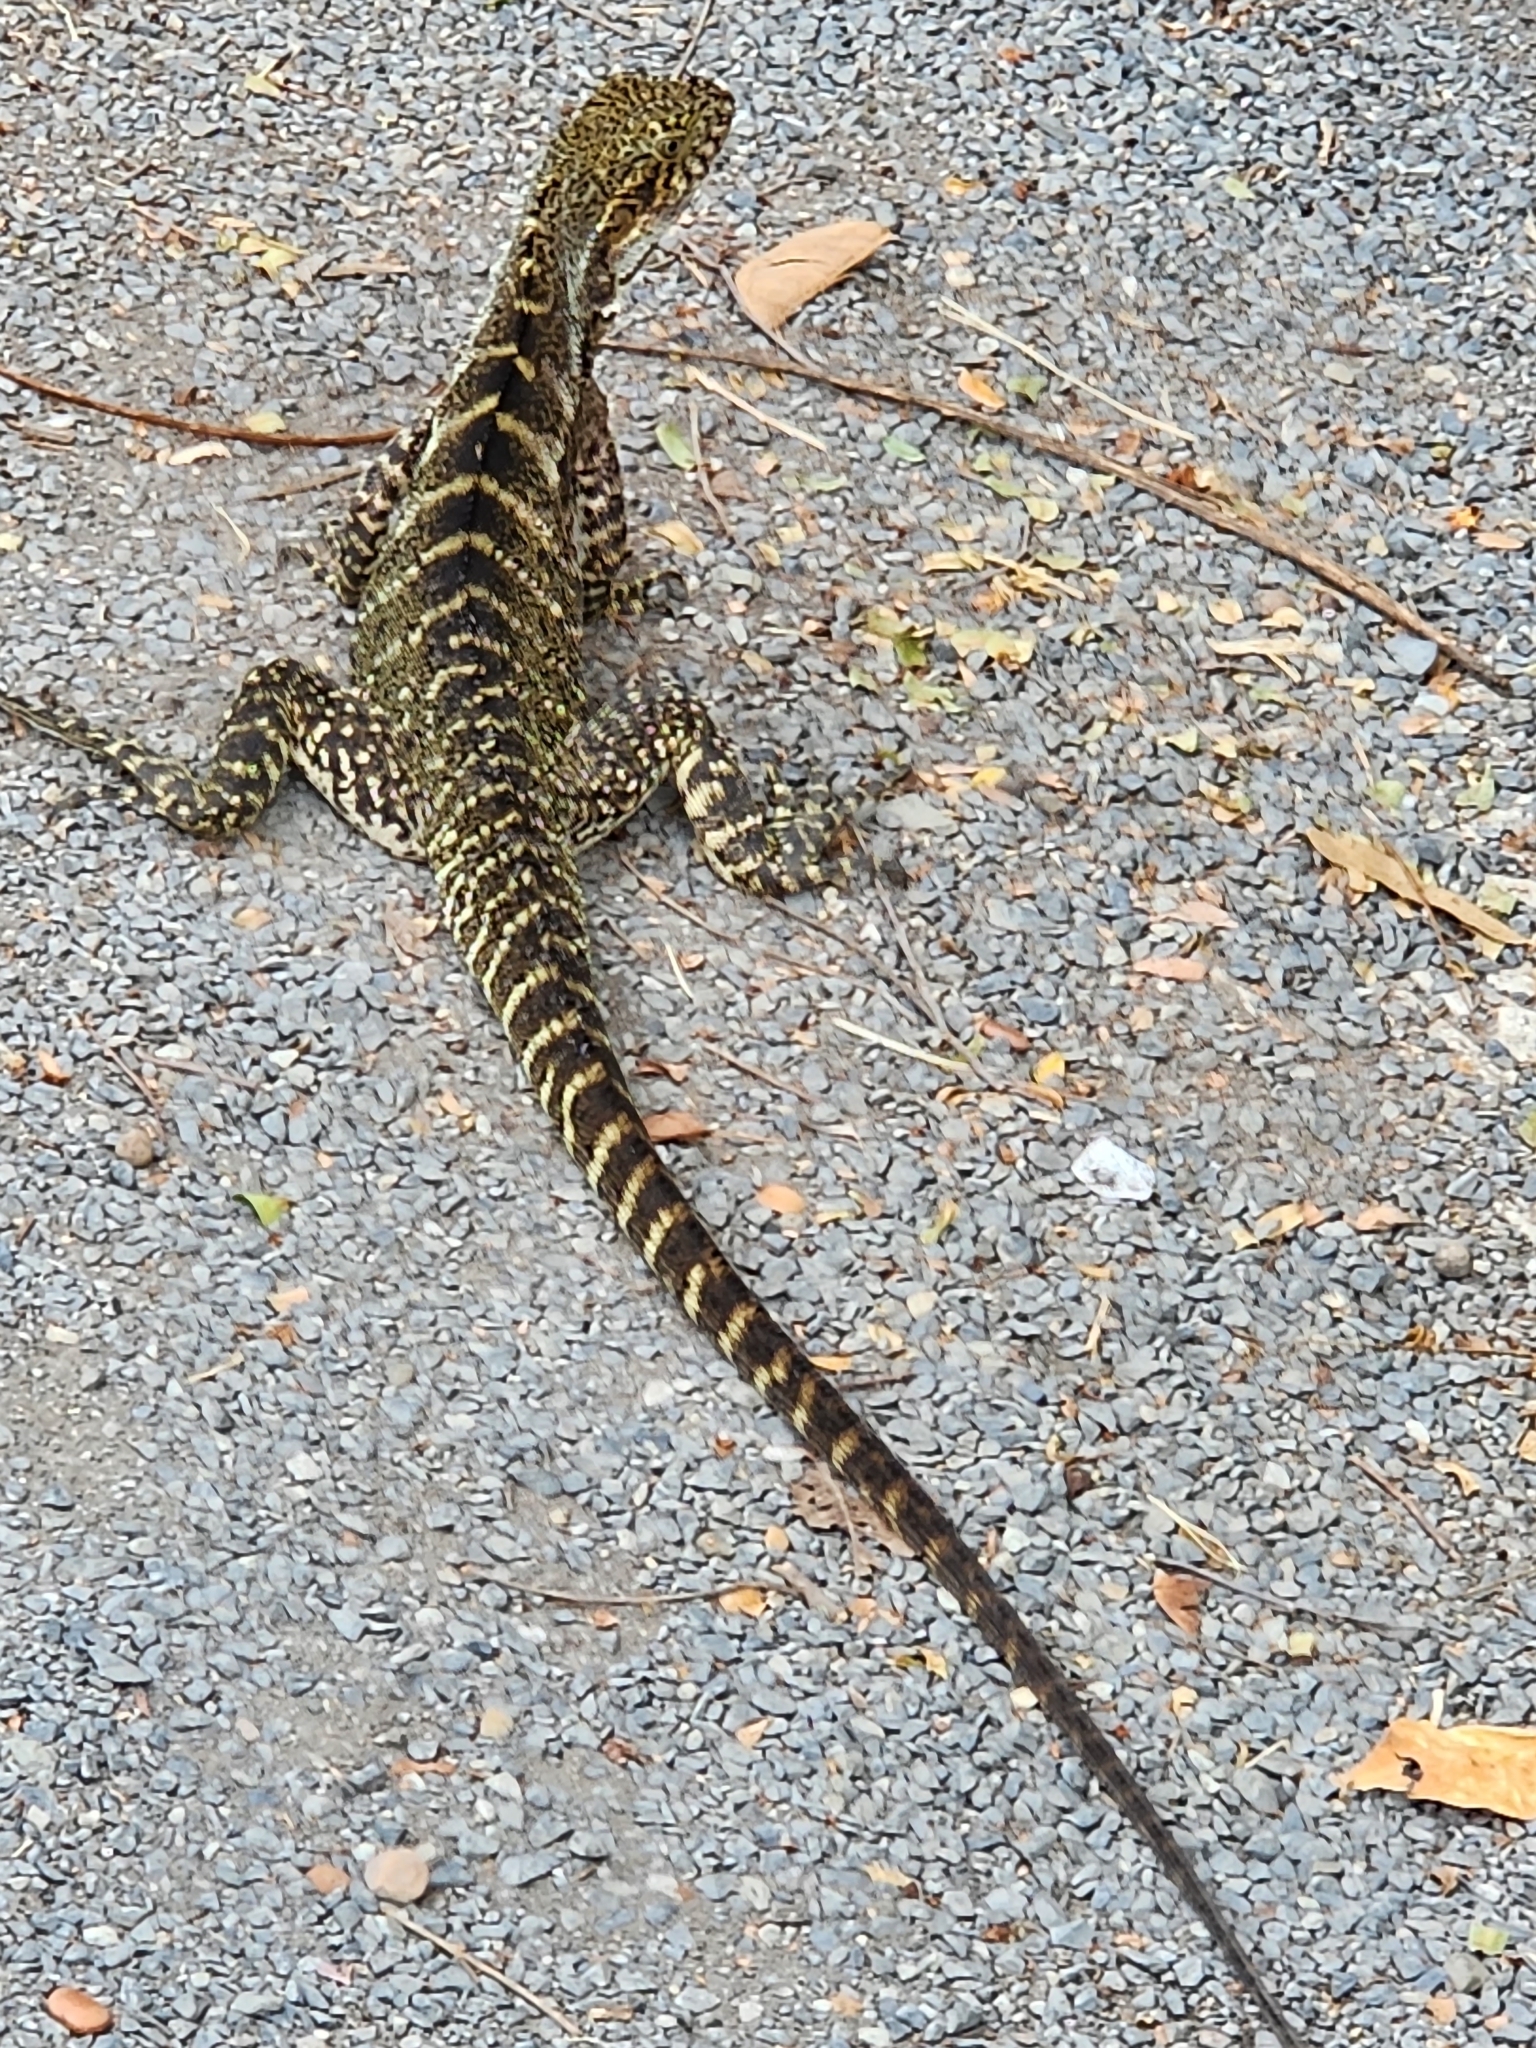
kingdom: Animalia
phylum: Chordata
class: Squamata
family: Agamidae
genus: Intellagama
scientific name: Intellagama lesueurii
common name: Eastern water dragon
